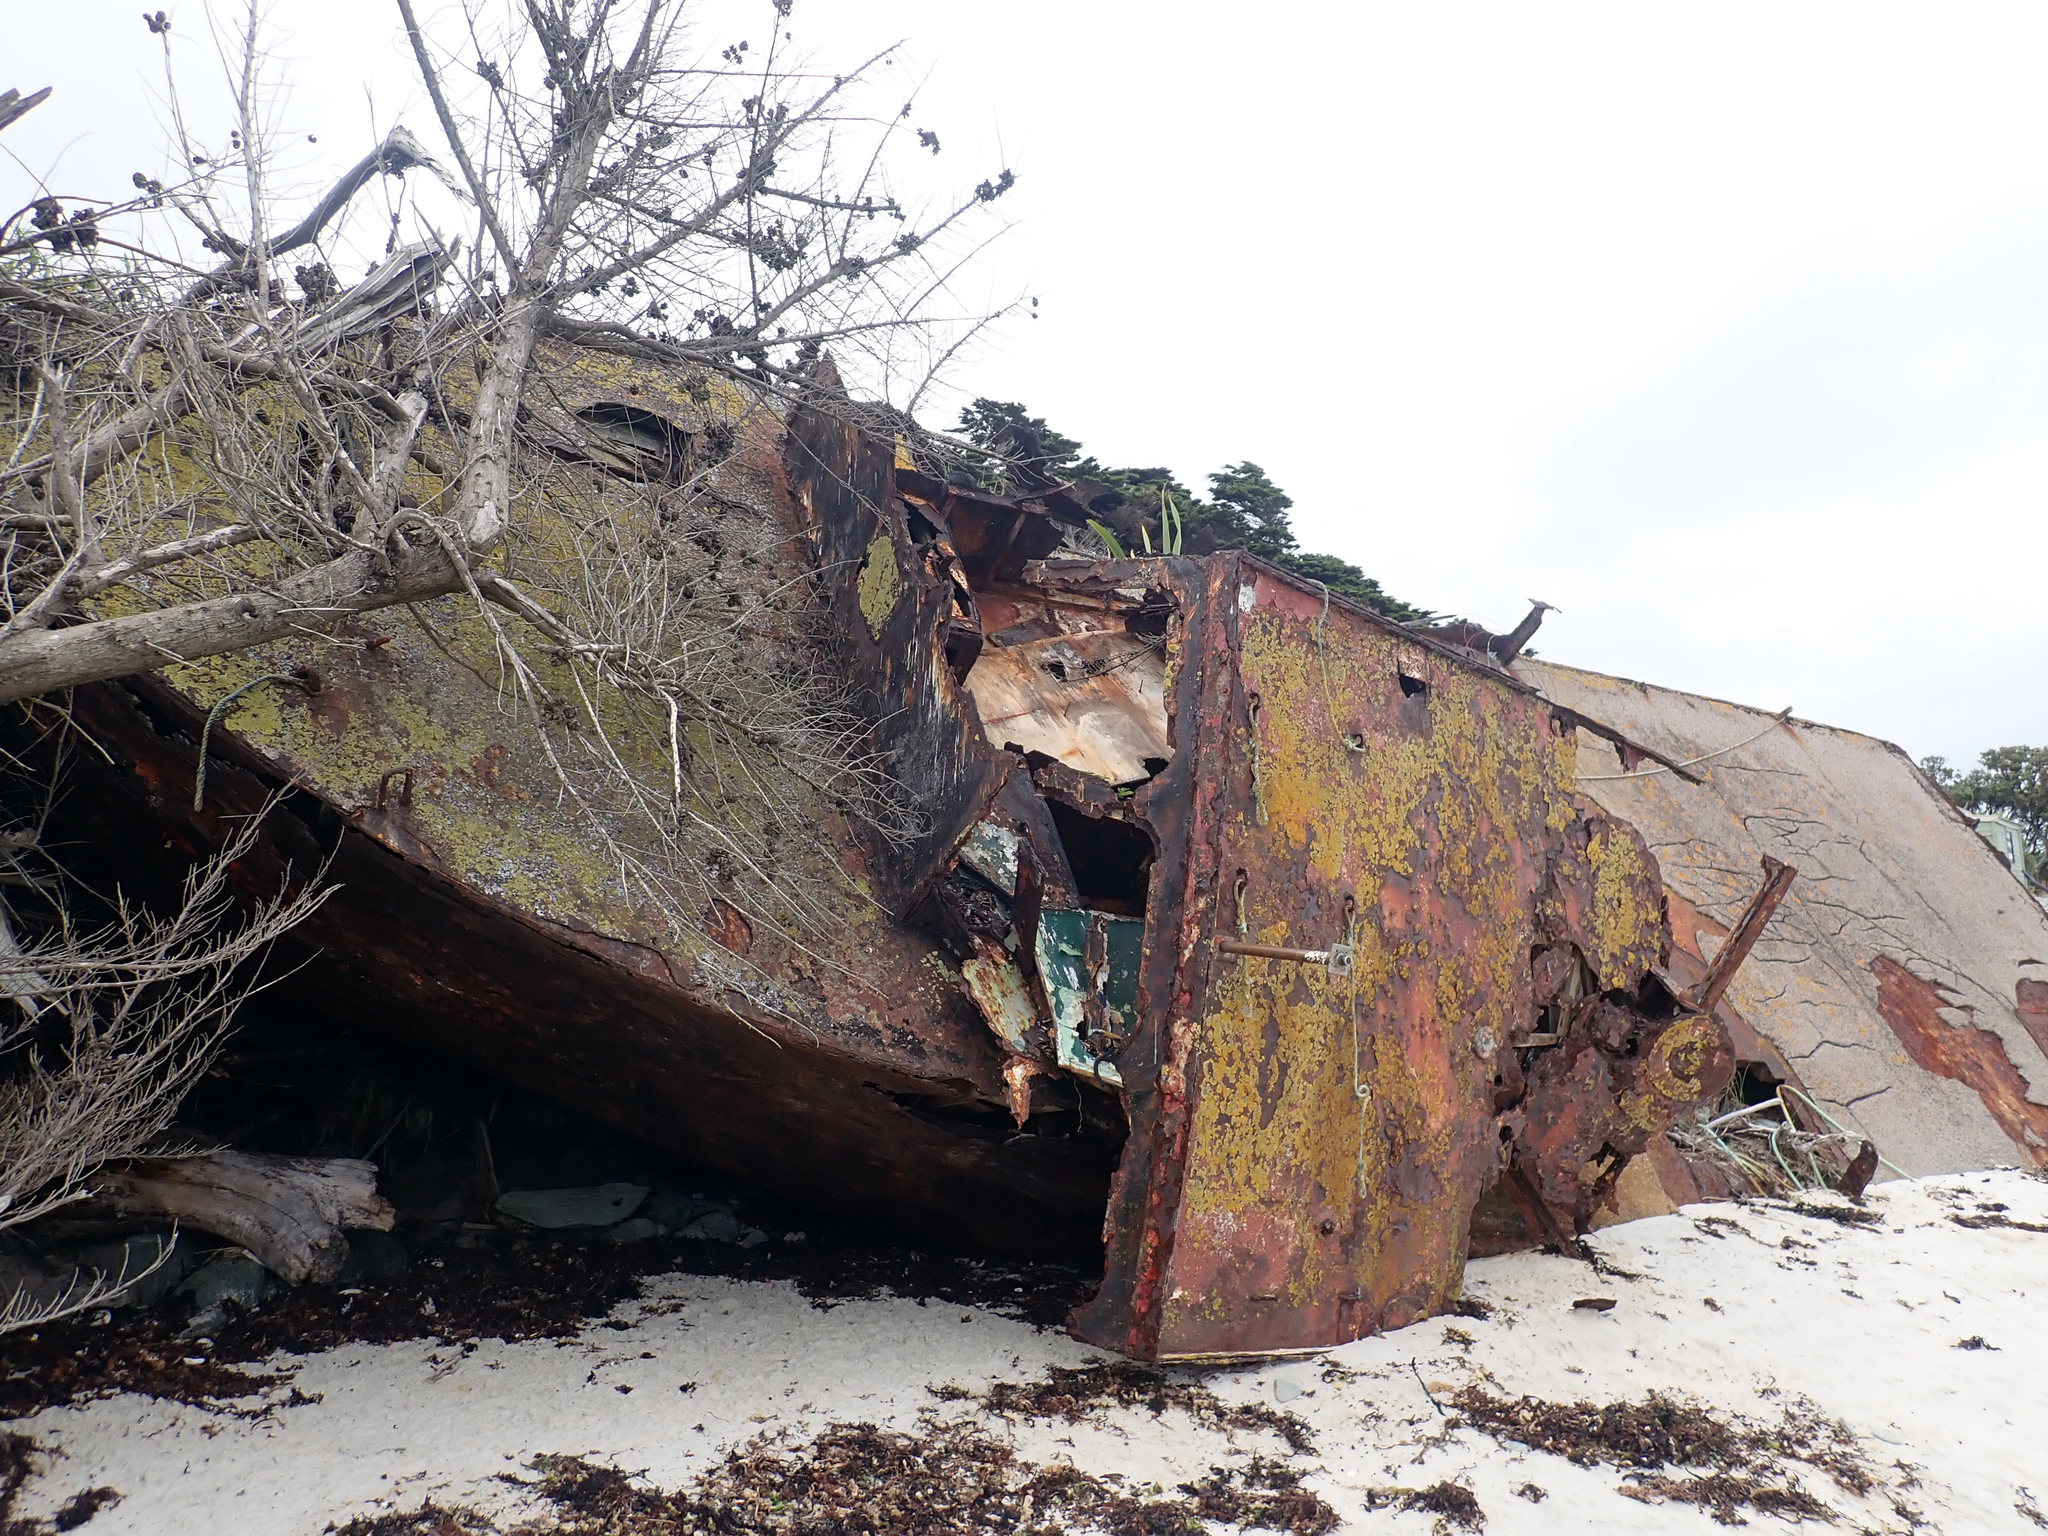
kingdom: Fungi
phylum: Ascomycota
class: Lecanoromycetes
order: Teloschistales
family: Teloschistaceae
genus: Dufourea
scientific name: Dufourea ligulata
